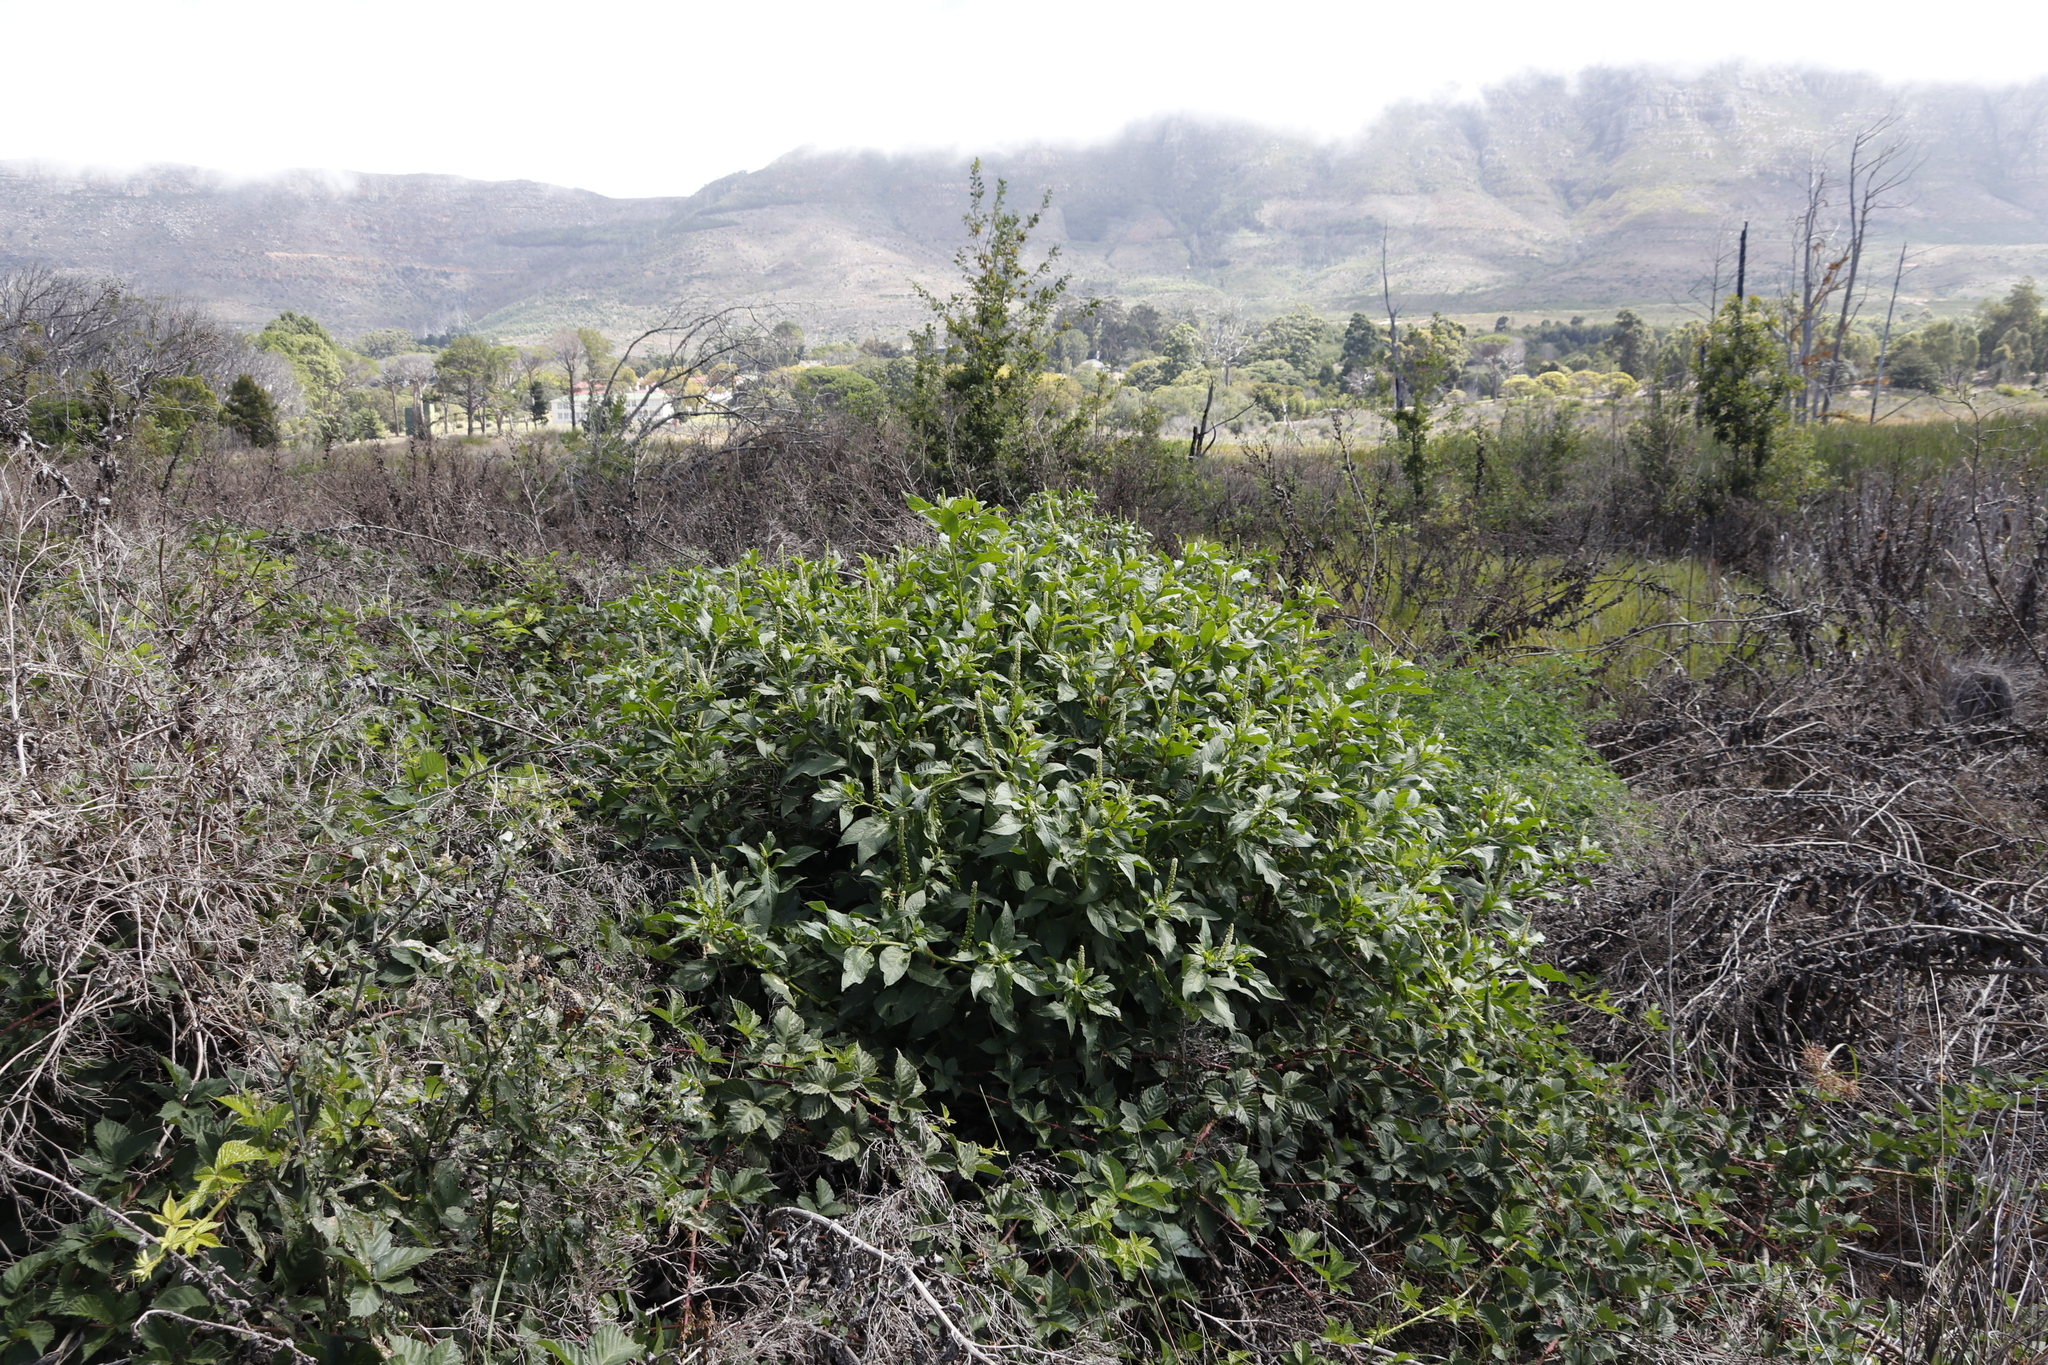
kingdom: Plantae
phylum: Tracheophyta
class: Magnoliopsida
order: Caryophyllales
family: Phytolaccaceae
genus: Phytolacca
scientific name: Phytolacca icosandra
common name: Button pokeweed
